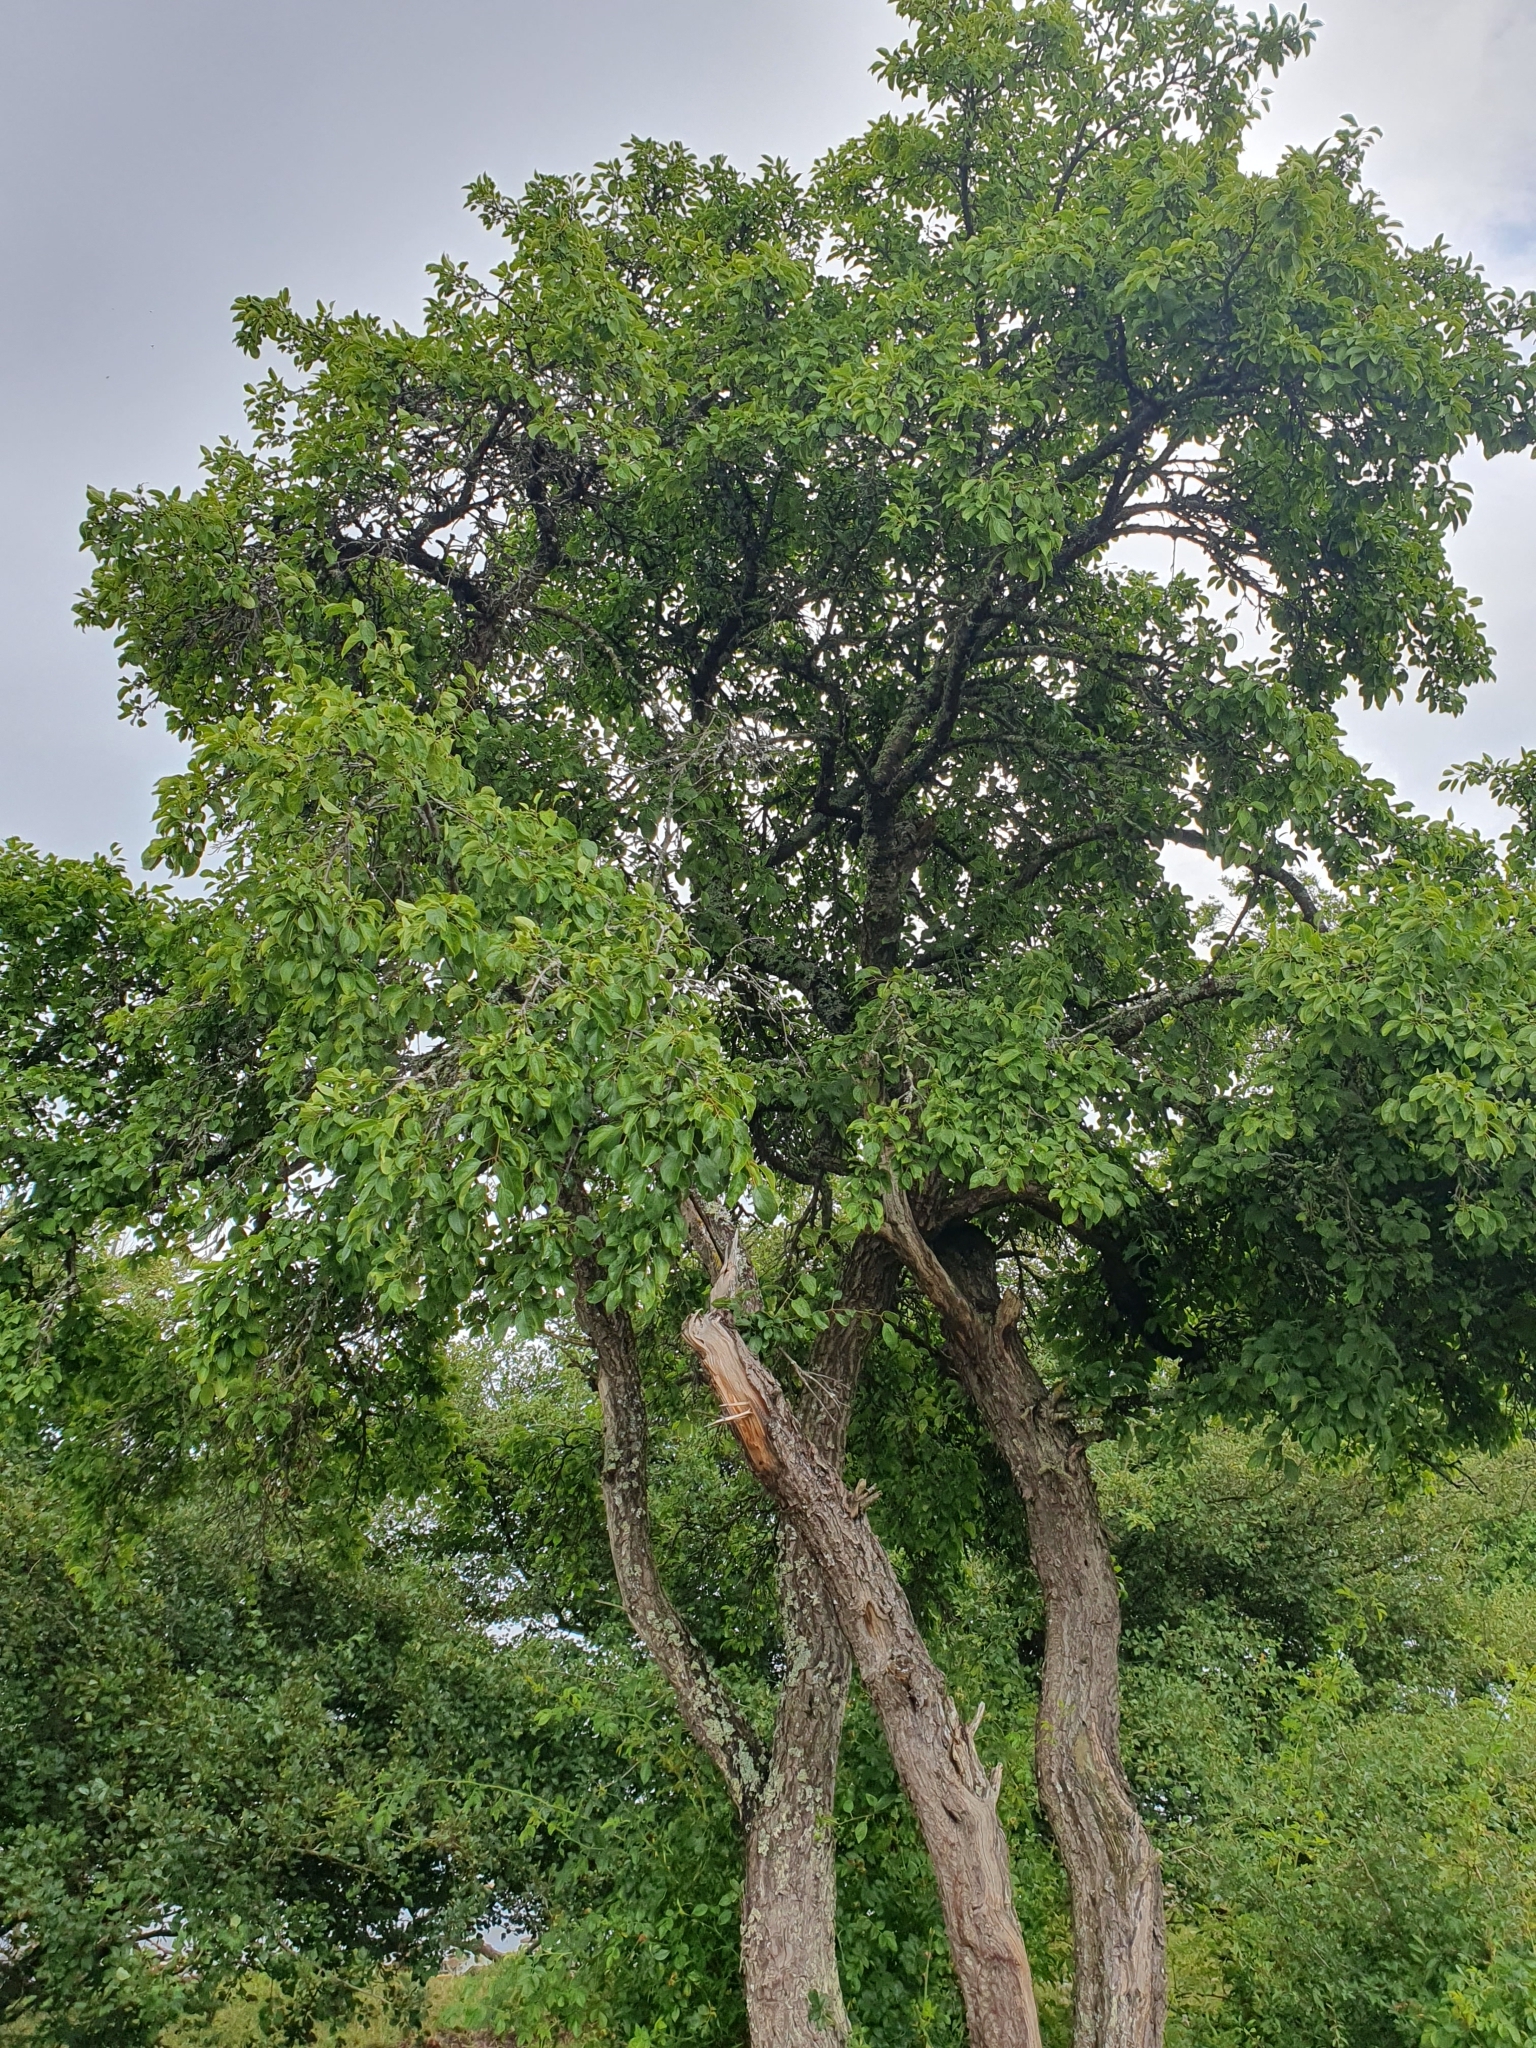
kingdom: Plantae
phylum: Tracheophyta
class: Magnoliopsida
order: Rosales
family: Rhamnaceae
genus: Rhamnus
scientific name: Rhamnus cathartica
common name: Common buckthorn
